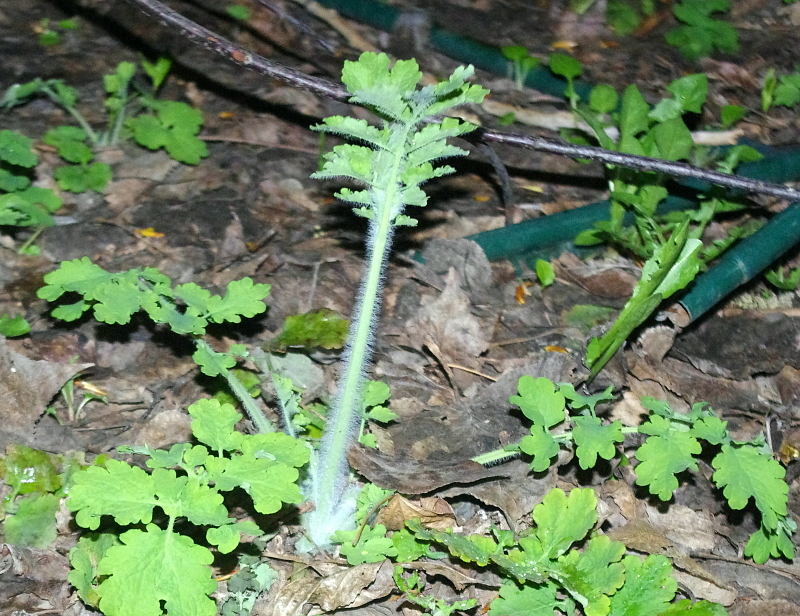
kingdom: Plantae
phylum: Tracheophyta
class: Magnoliopsida
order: Ranunculales
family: Papaveraceae
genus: Chelidonium
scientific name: Chelidonium majus
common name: Greater celandine
